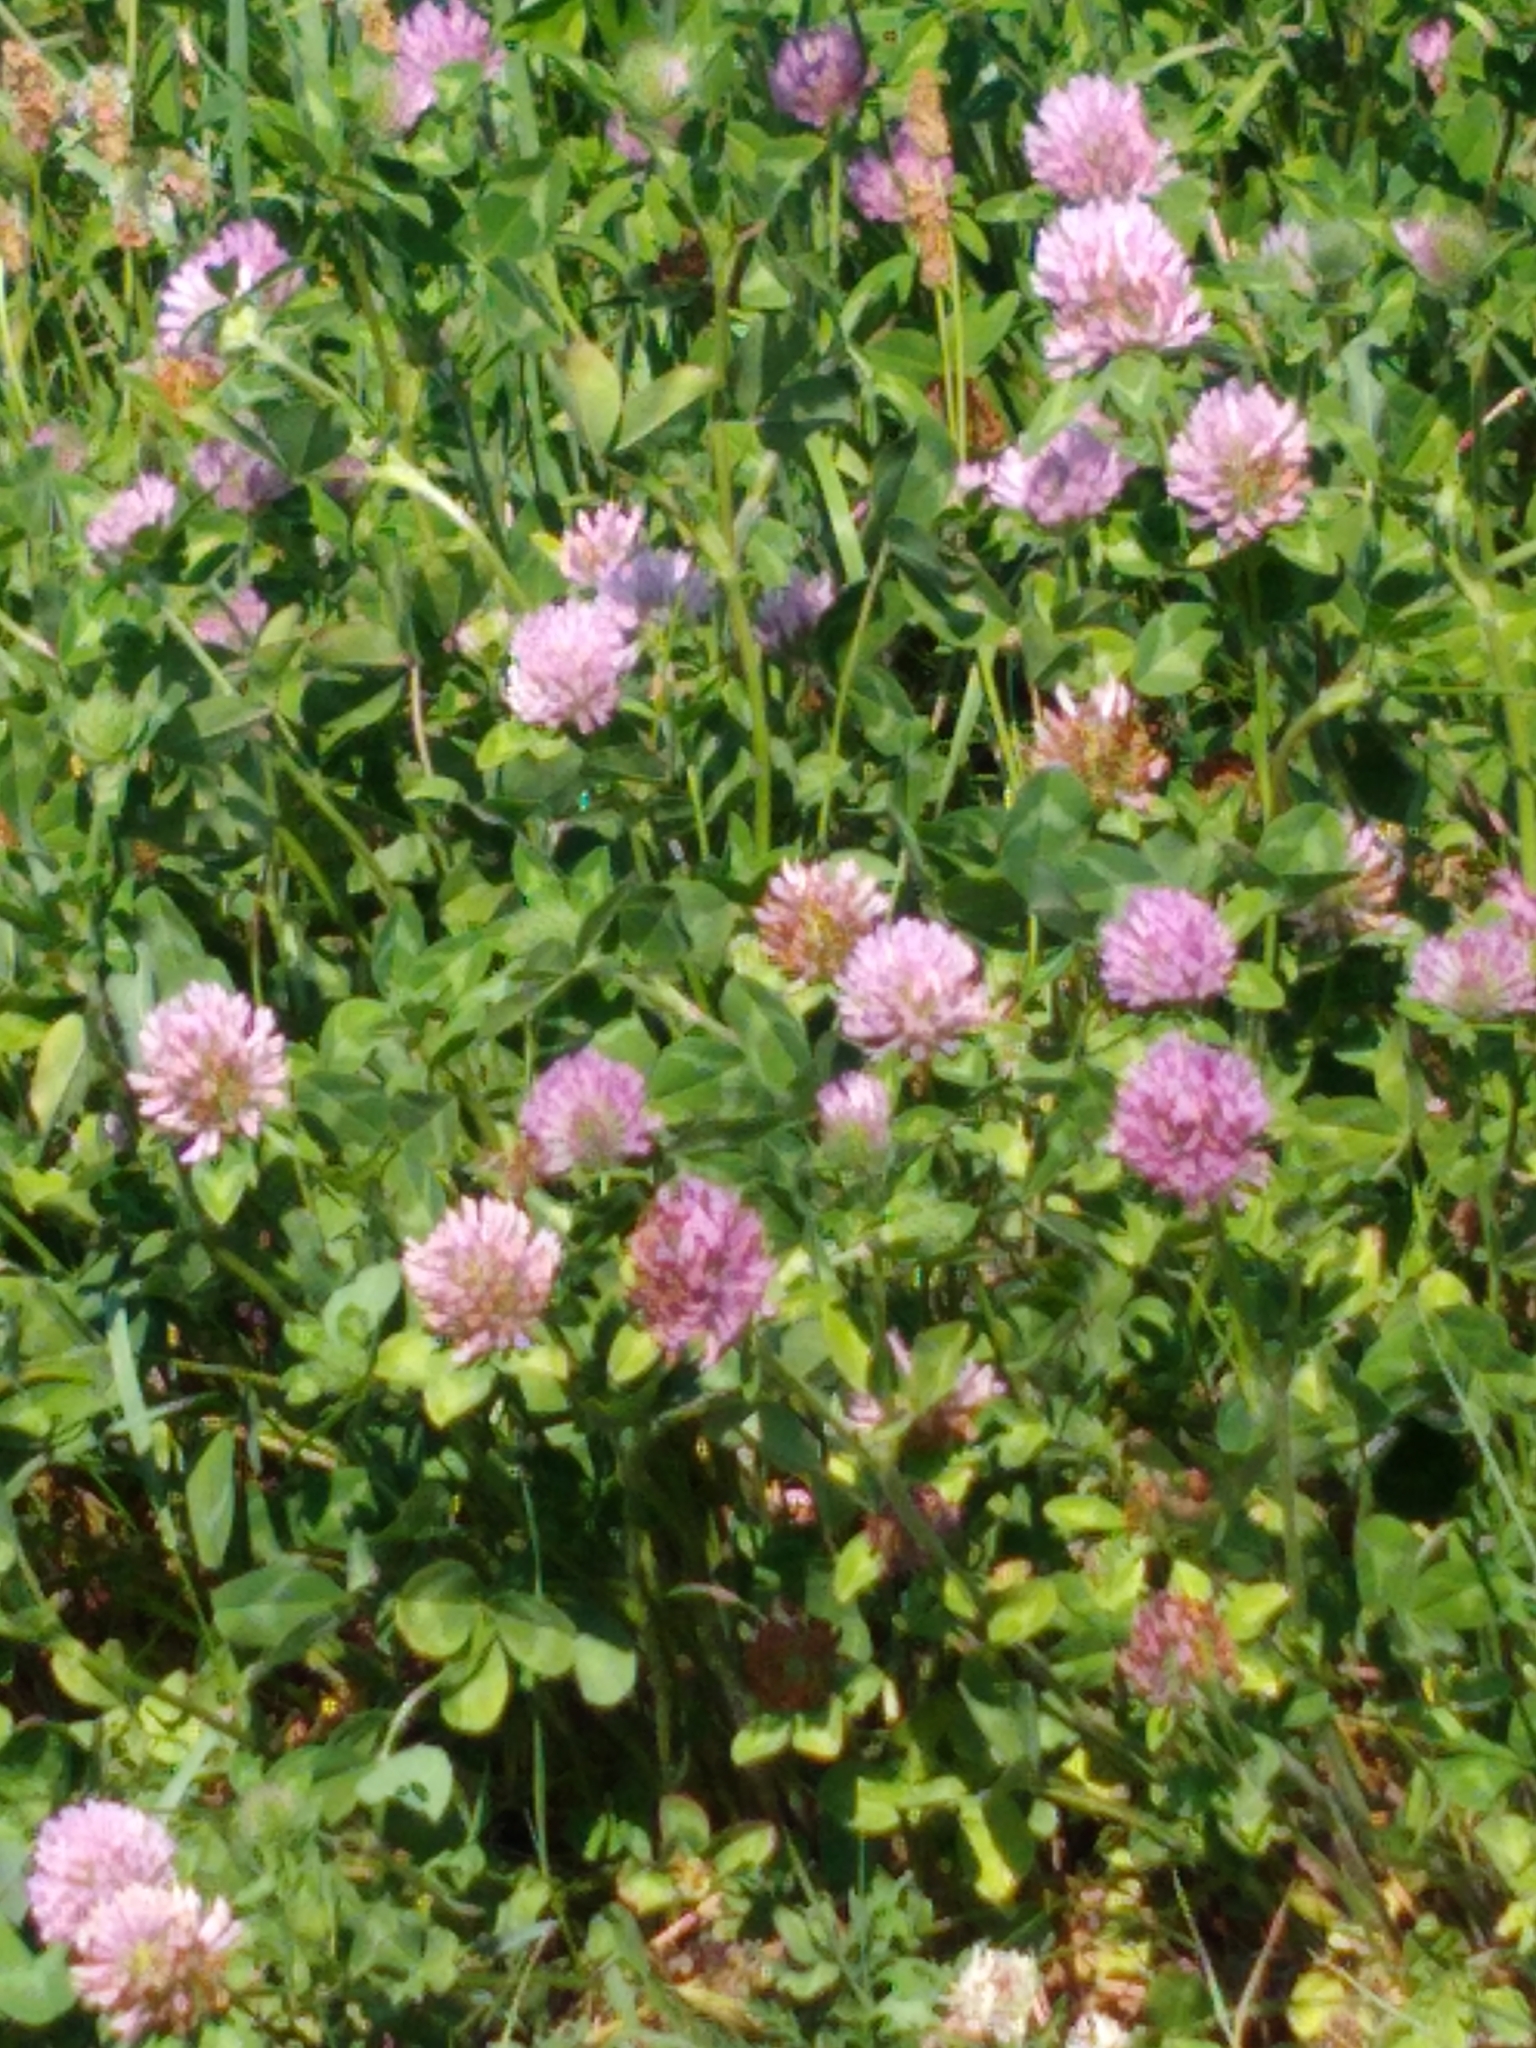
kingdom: Plantae
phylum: Tracheophyta
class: Magnoliopsida
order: Fabales
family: Fabaceae
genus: Trifolium
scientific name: Trifolium pratense
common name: Red clover
